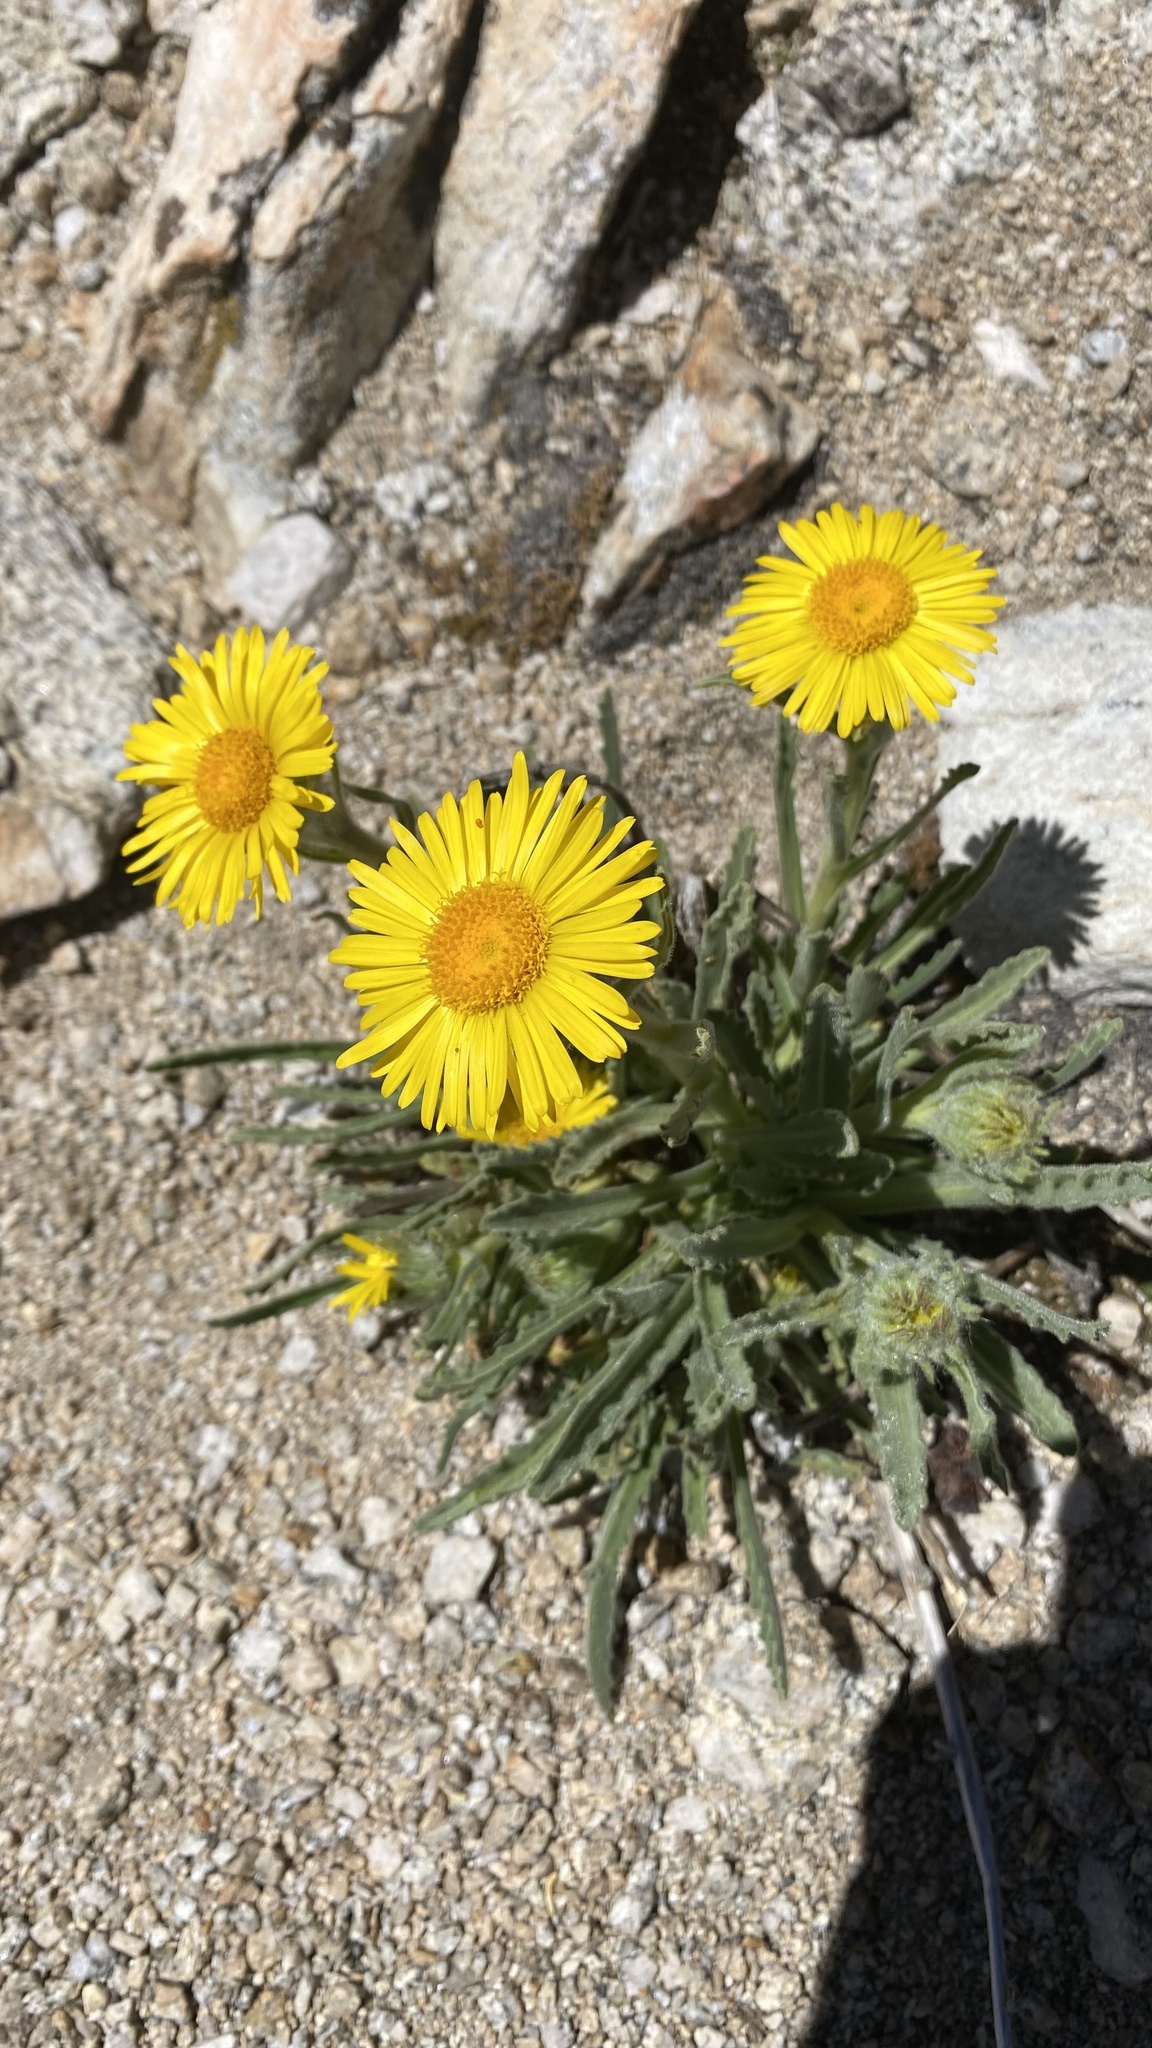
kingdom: Plantae
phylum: Tracheophyta
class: Magnoliopsida
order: Asterales
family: Asteraceae
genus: Hulsea
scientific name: Hulsea algida
